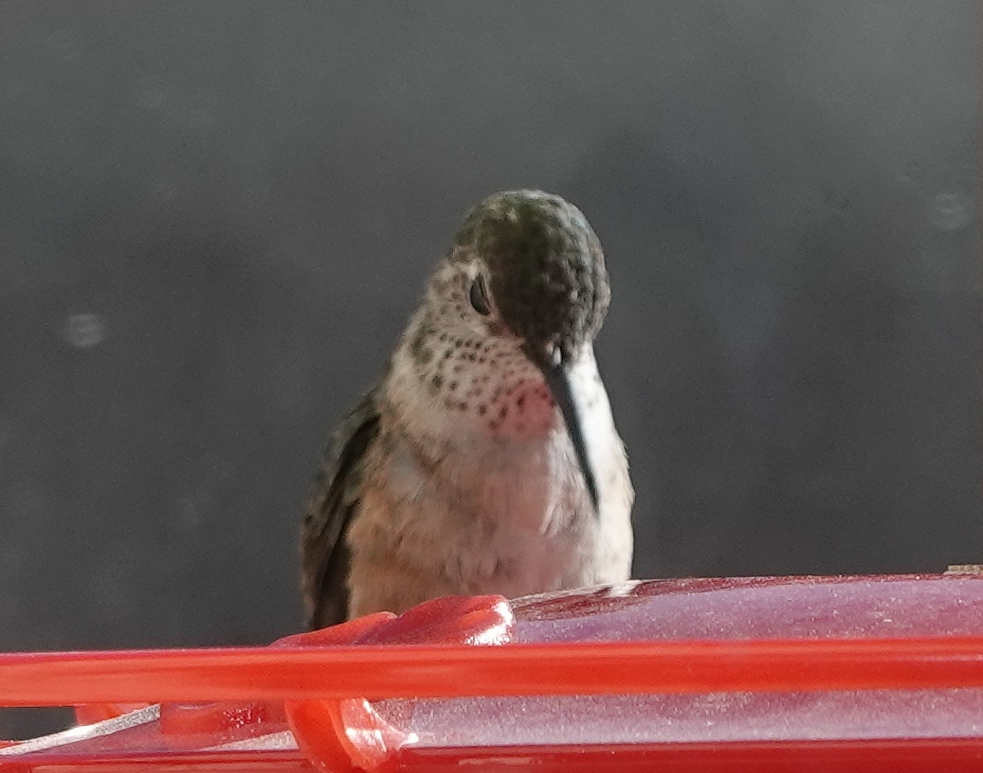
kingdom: Animalia
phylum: Chordata
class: Aves
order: Apodiformes
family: Trochilidae
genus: Selasphorus
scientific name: Selasphorus platycercus
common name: Broad-tailed hummingbird
